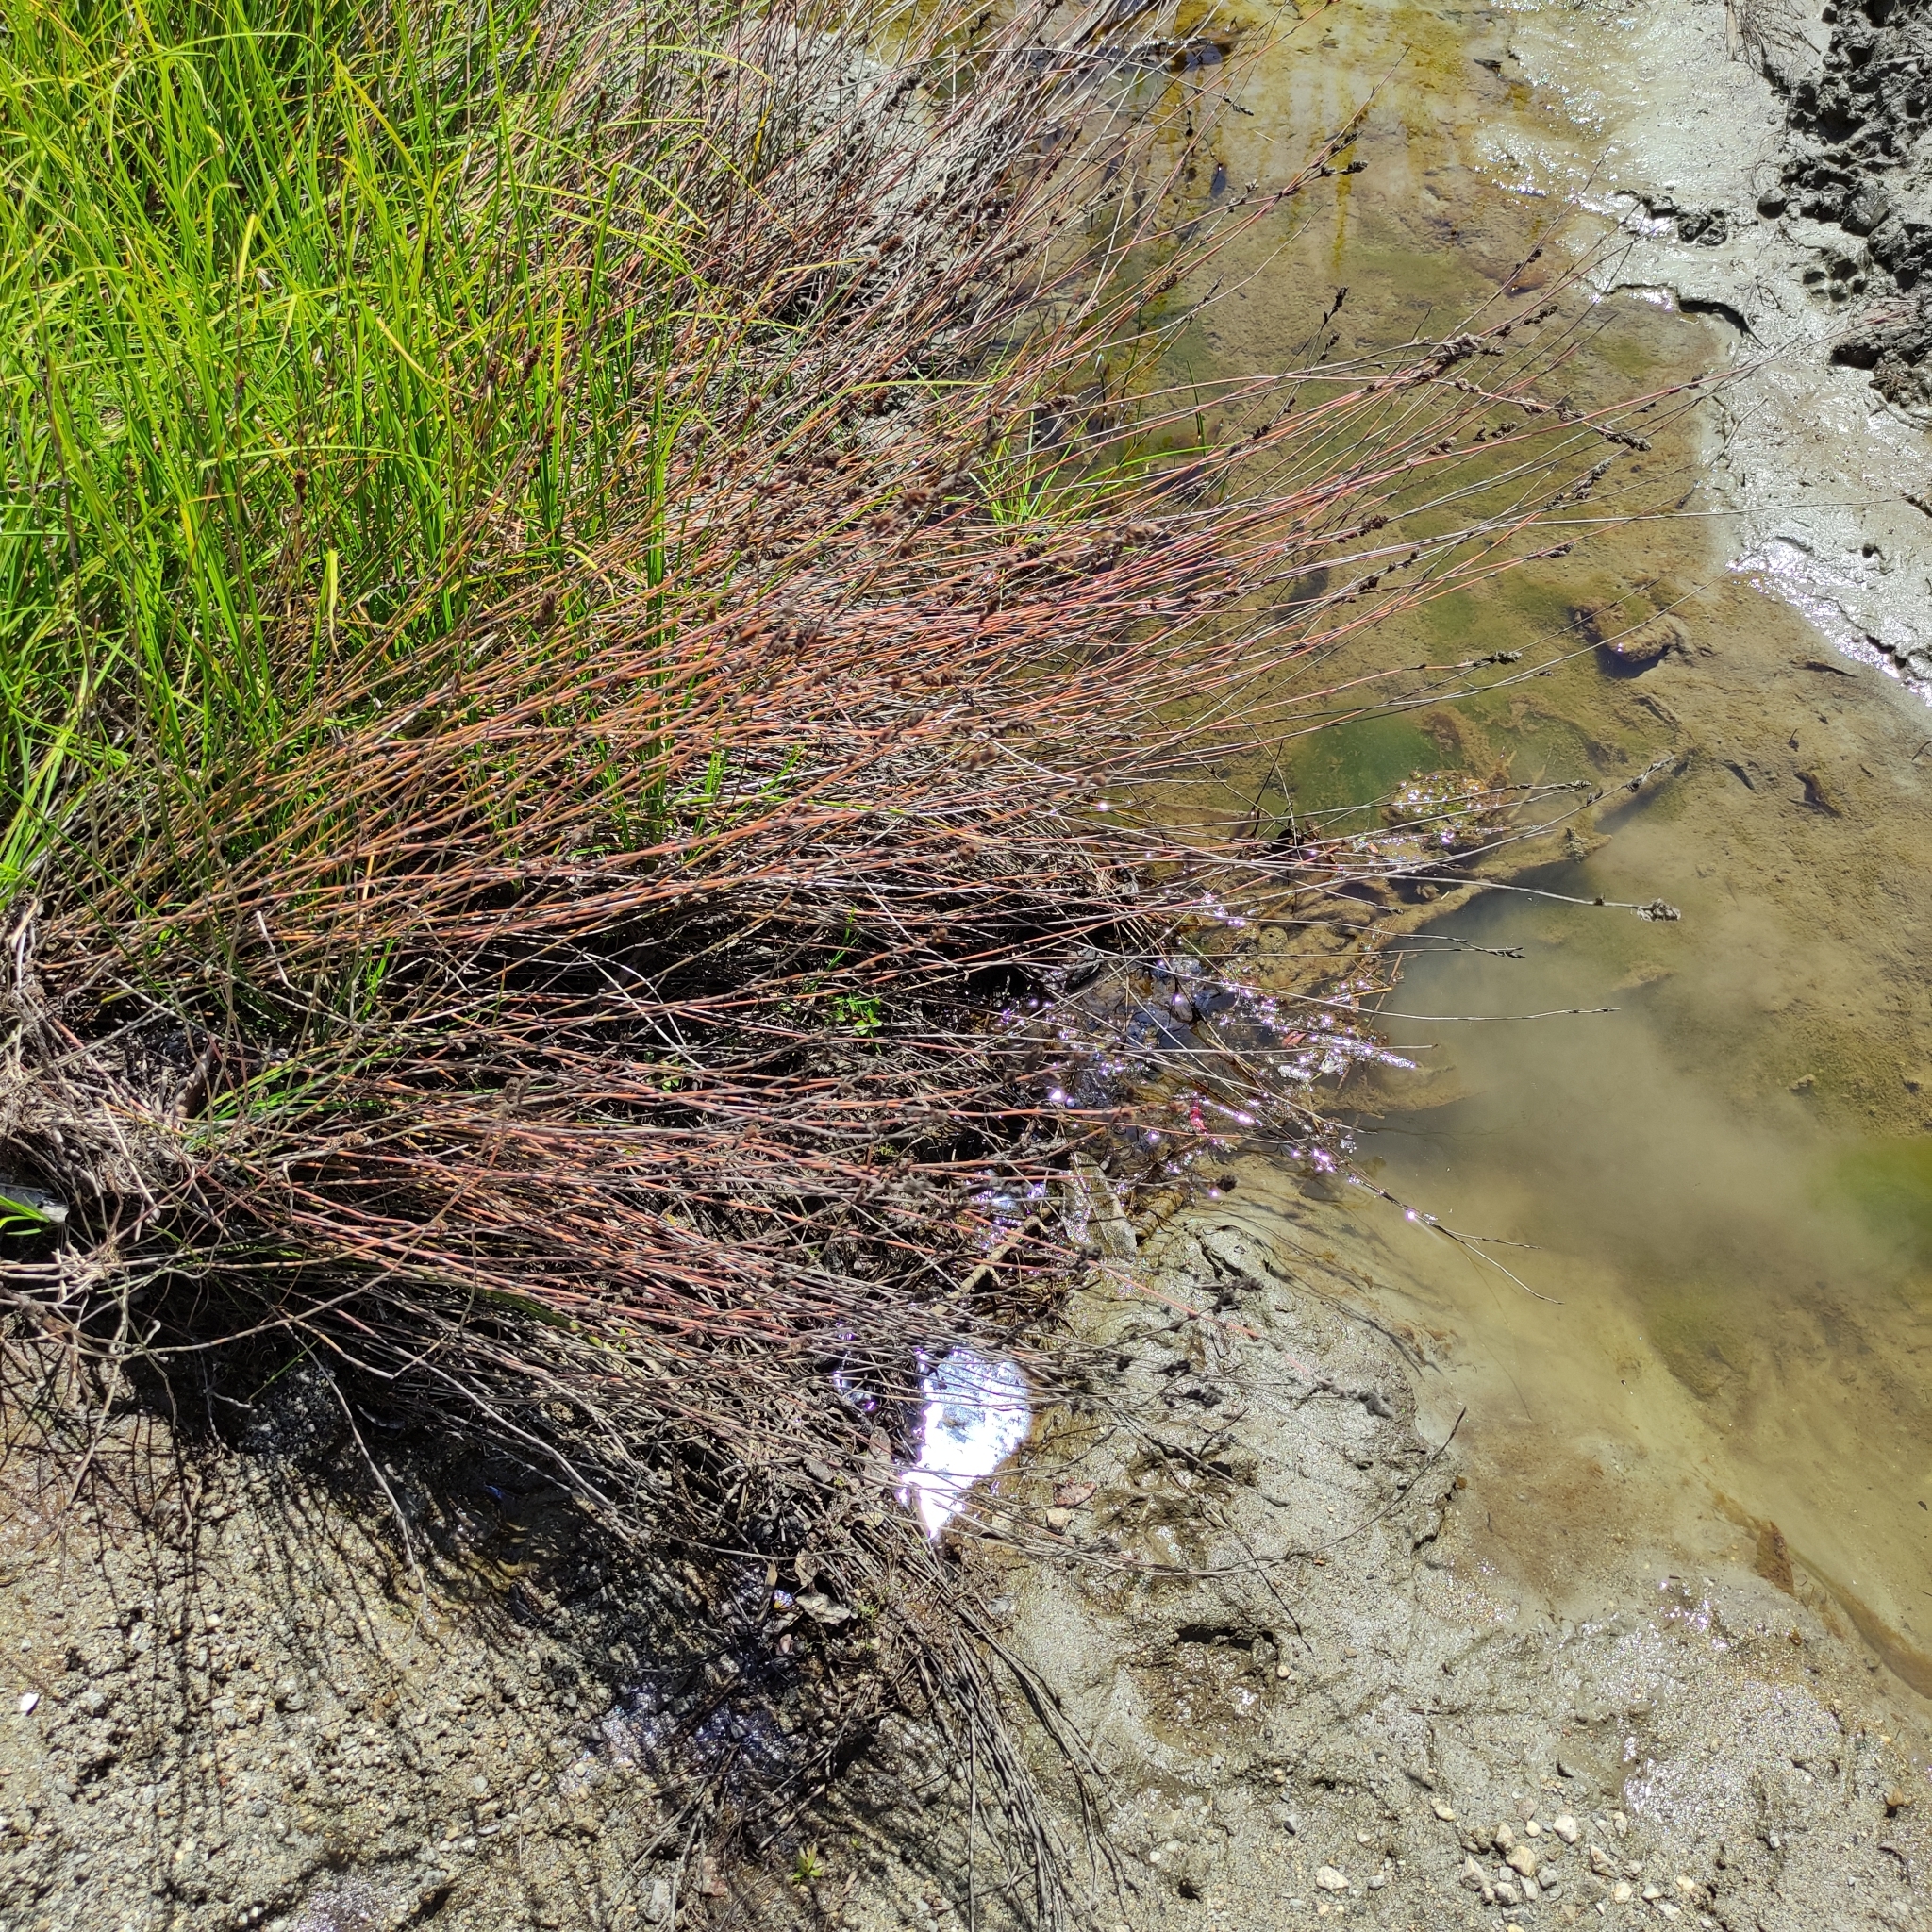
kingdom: Plantae
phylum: Tracheophyta
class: Liliopsida
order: Poales
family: Restionaceae
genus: Apodasmia
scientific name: Apodasmia similis
